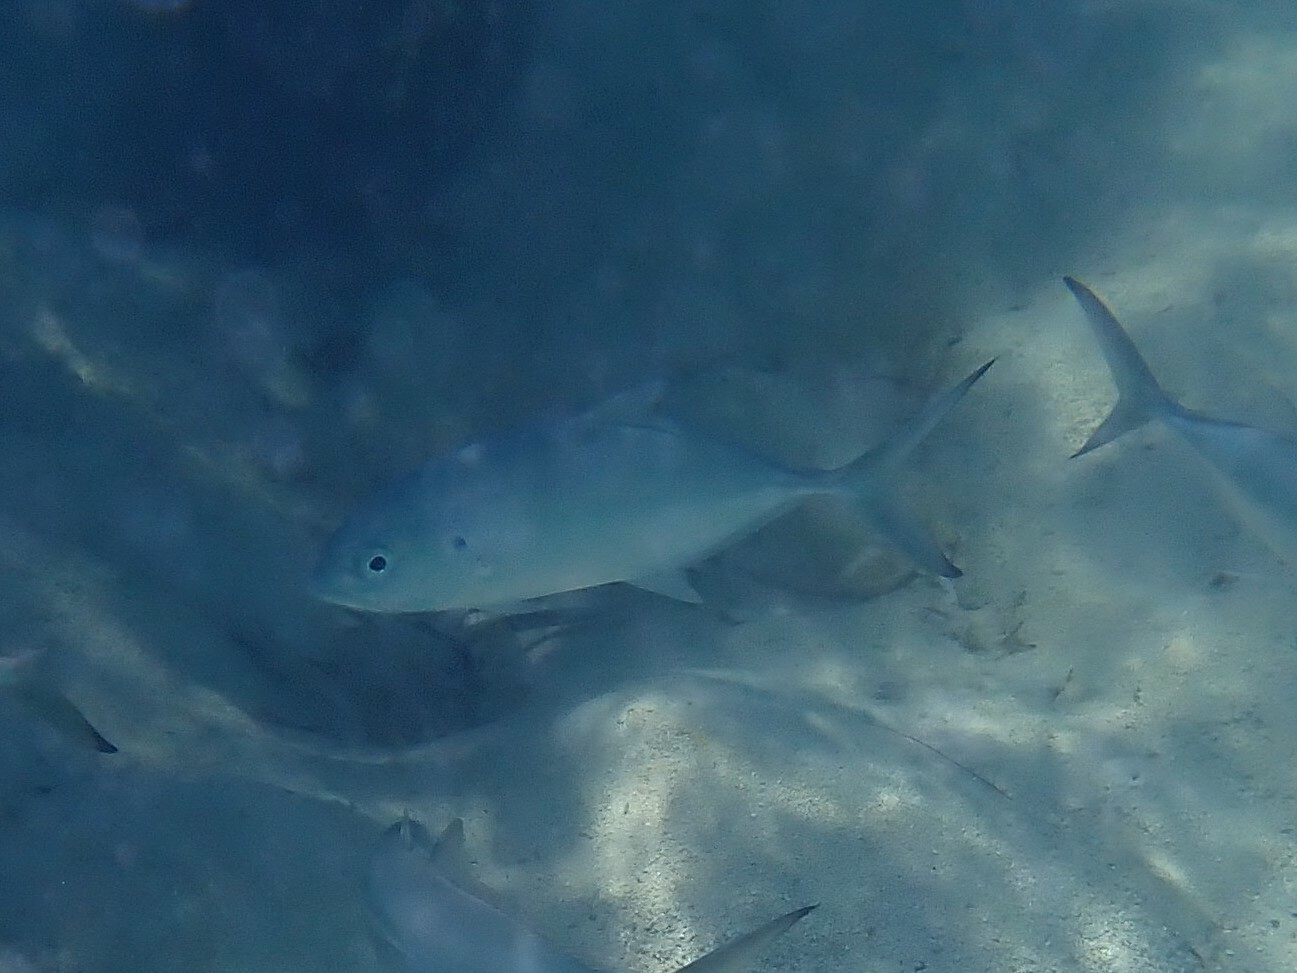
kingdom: Animalia
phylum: Chordata
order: Perciformes
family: Carangidae
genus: Caranx
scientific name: Caranx crysos
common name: Blue runner
